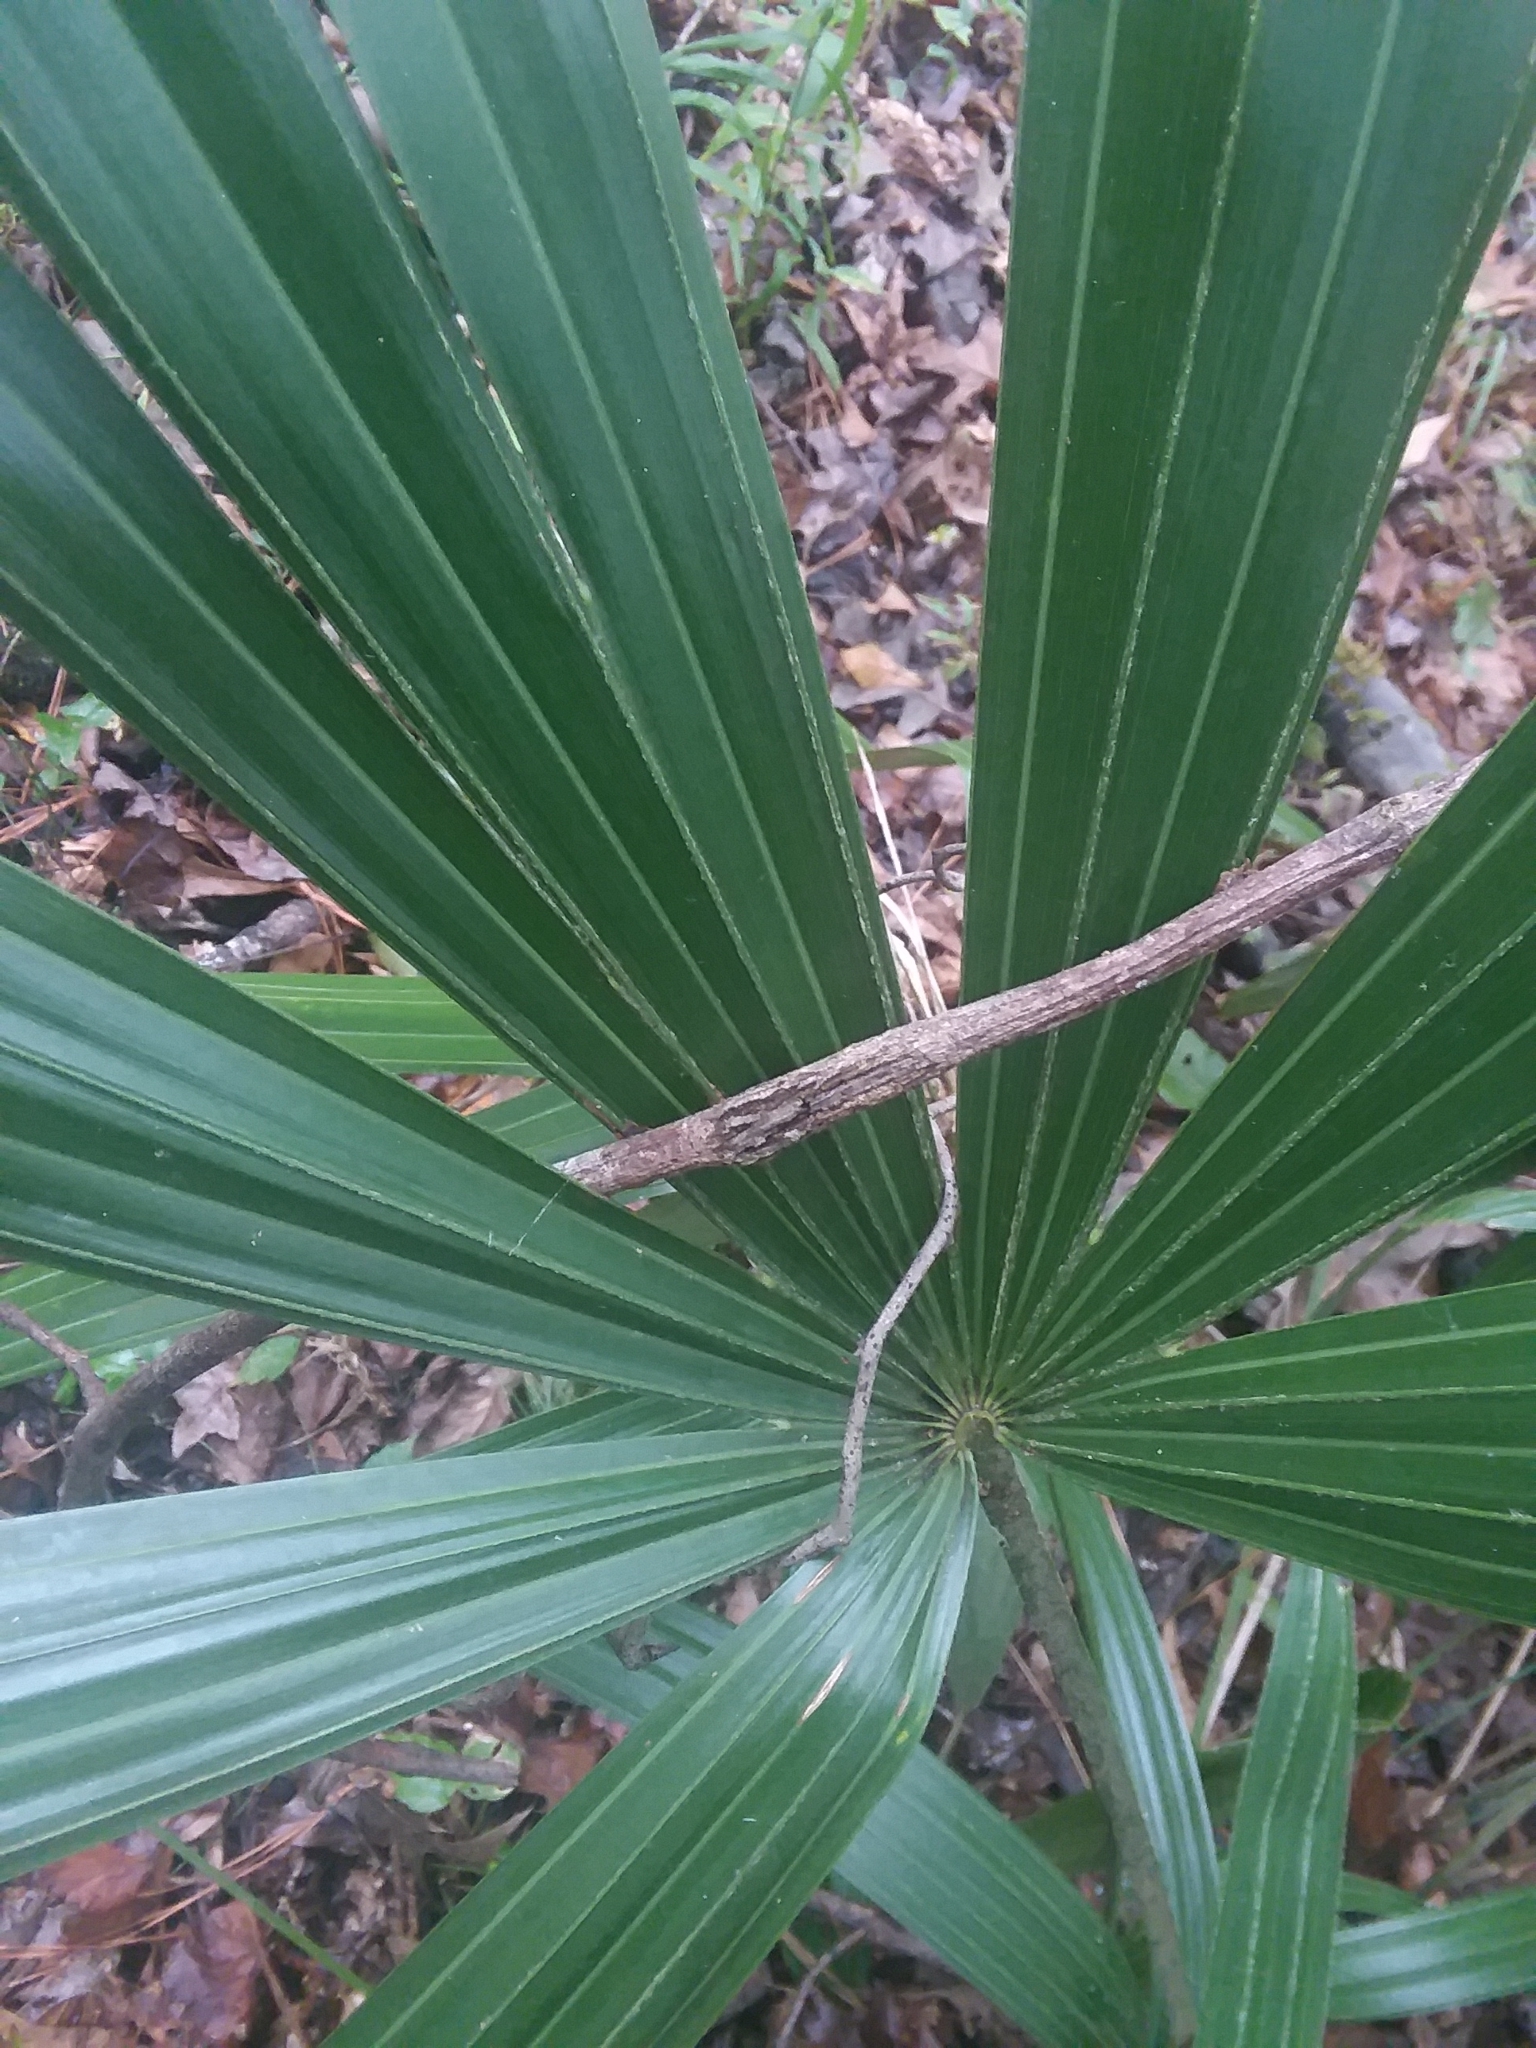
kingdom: Plantae
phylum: Tracheophyta
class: Liliopsida
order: Arecales
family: Arecaceae
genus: Rhapidophyllum
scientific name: Rhapidophyllum hystrix
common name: Porcupine palm
